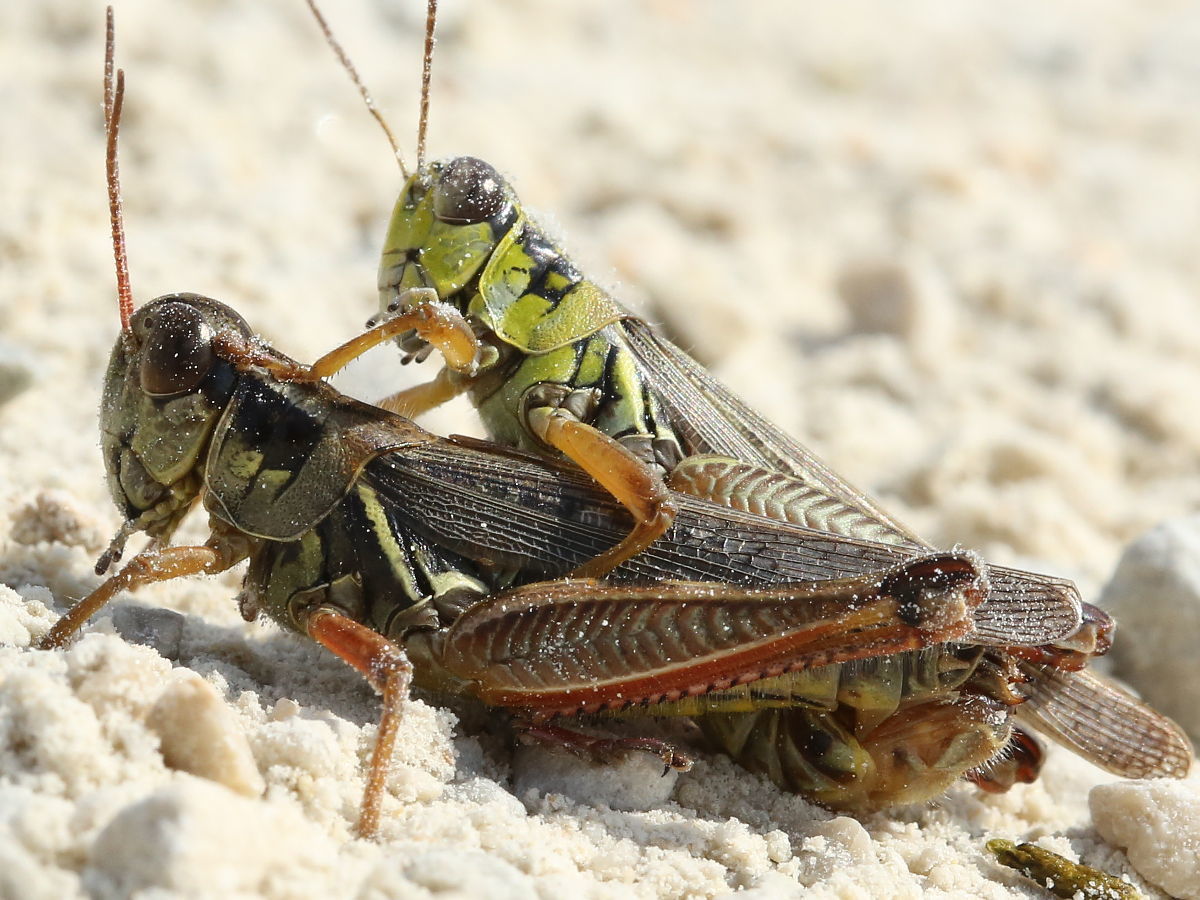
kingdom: Animalia
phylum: Arthropoda
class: Insecta
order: Orthoptera
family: Acrididae
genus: Melanoplus
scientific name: Melanoplus femurrubrum
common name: Red-legged grasshopper
